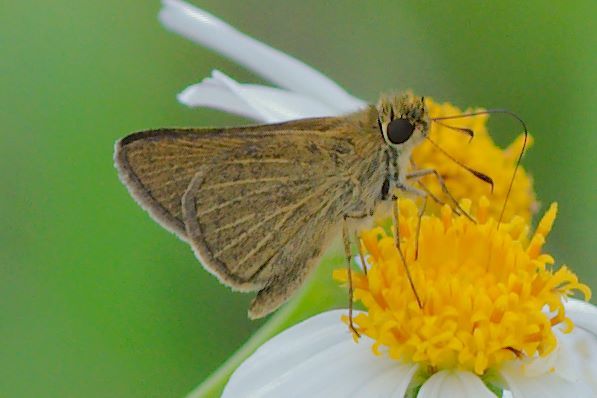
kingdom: Animalia
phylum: Arthropoda
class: Insecta
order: Lepidoptera
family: Hesperiidae
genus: Nastra
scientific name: Nastra lherminier
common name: Swarthy skipper
